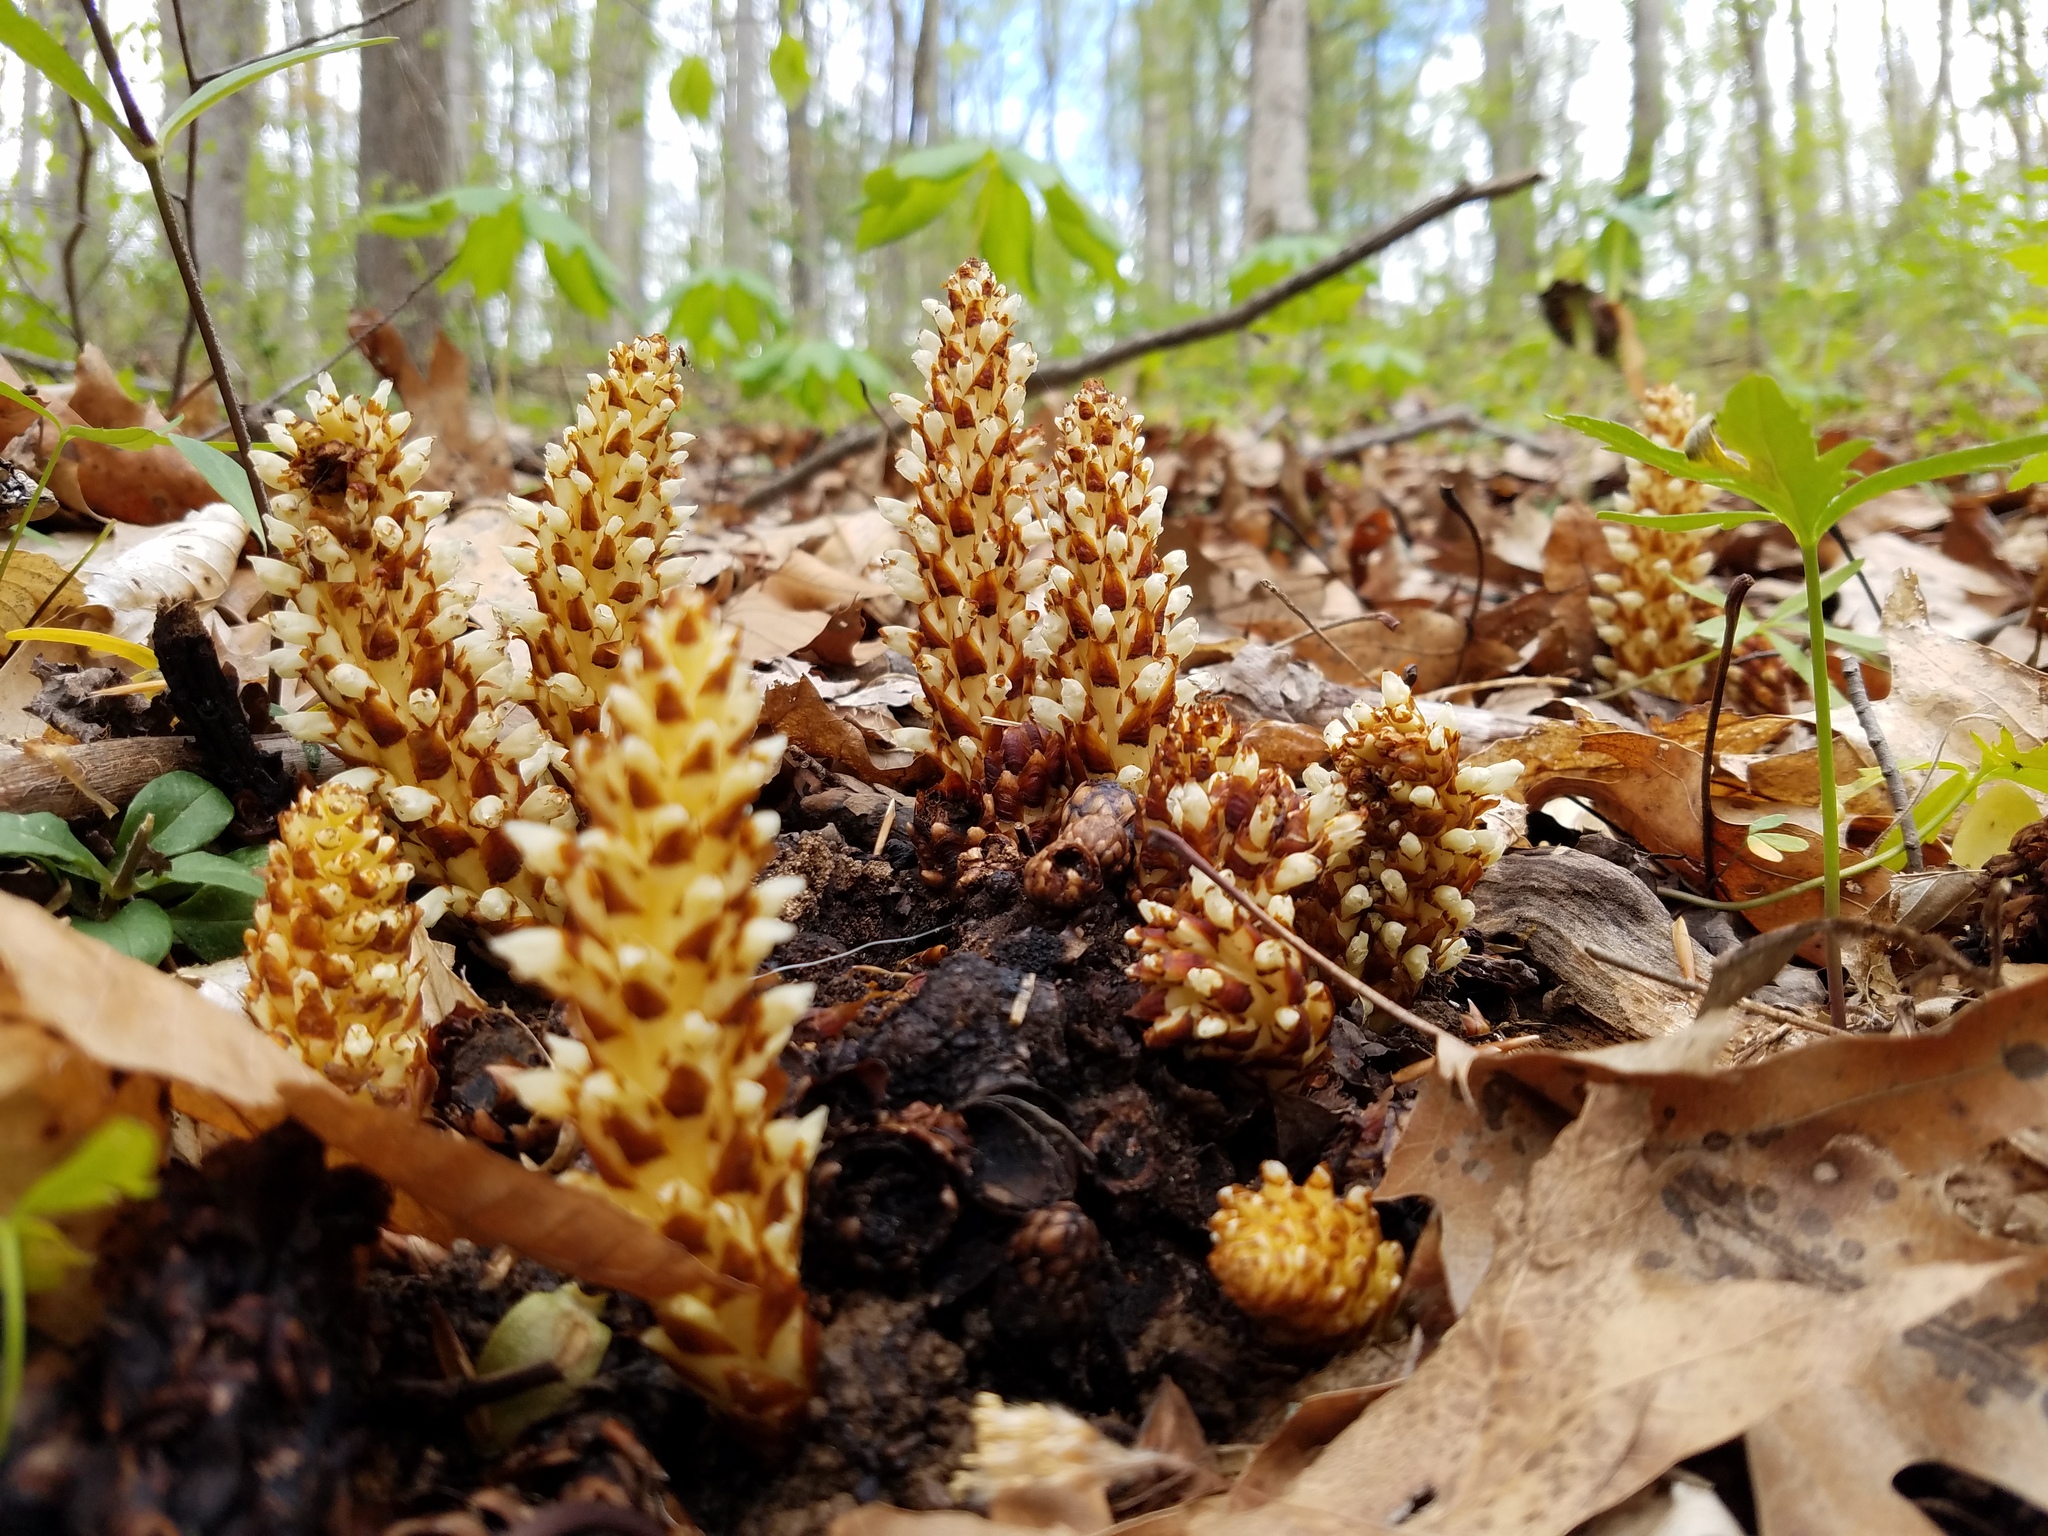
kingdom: Plantae
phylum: Tracheophyta
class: Magnoliopsida
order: Lamiales
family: Orobanchaceae
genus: Conopholis
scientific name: Conopholis americana
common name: American cancer-root
